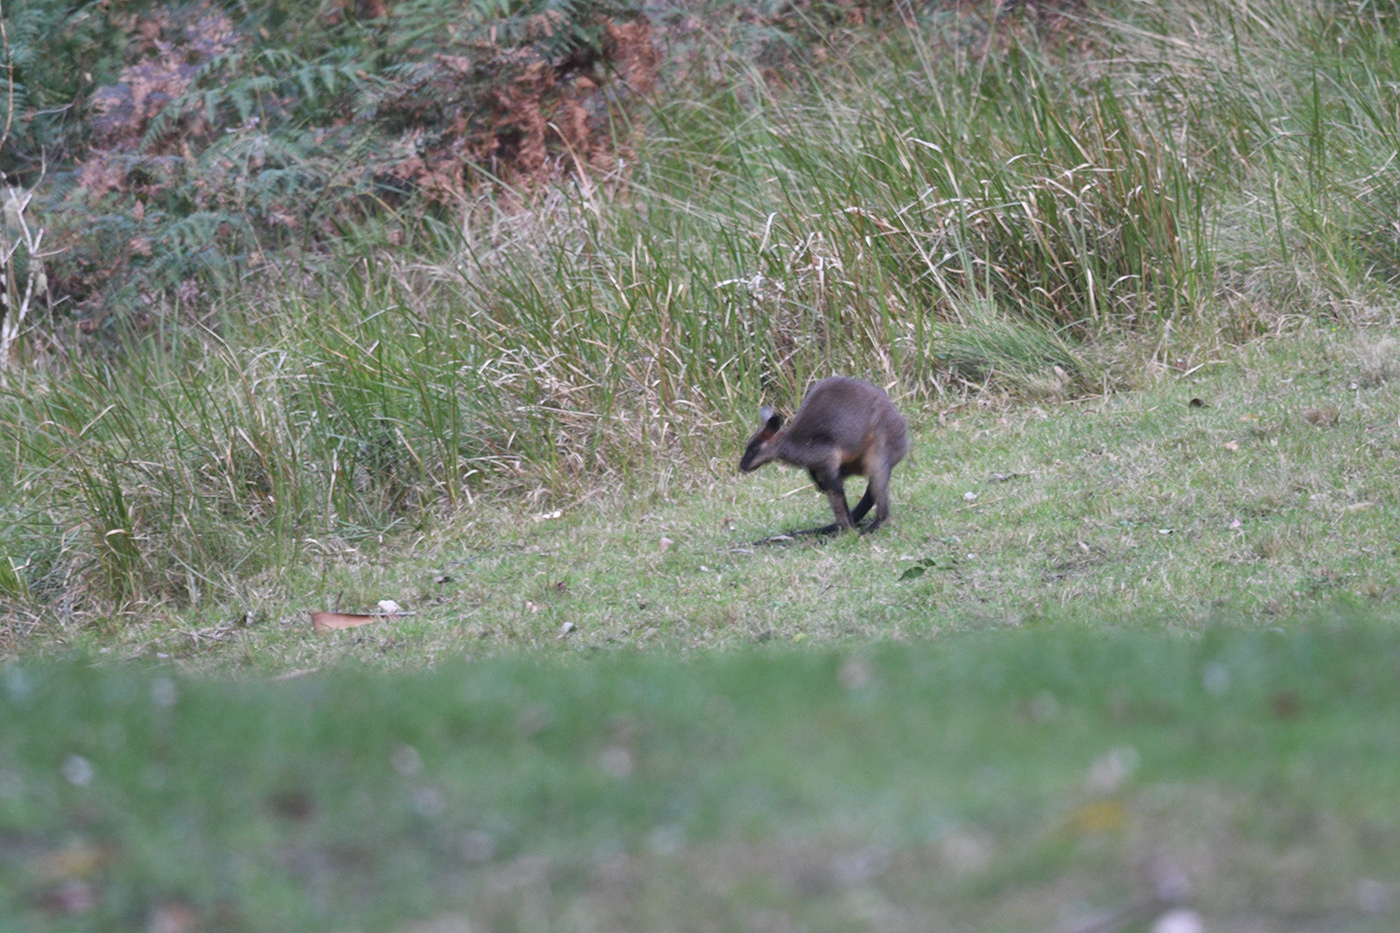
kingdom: Animalia
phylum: Chordata
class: Mammalia
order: Diprotodontia
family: Macropodidae
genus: Wallabia
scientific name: Wallabia bicolor
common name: Swamp wallaby
